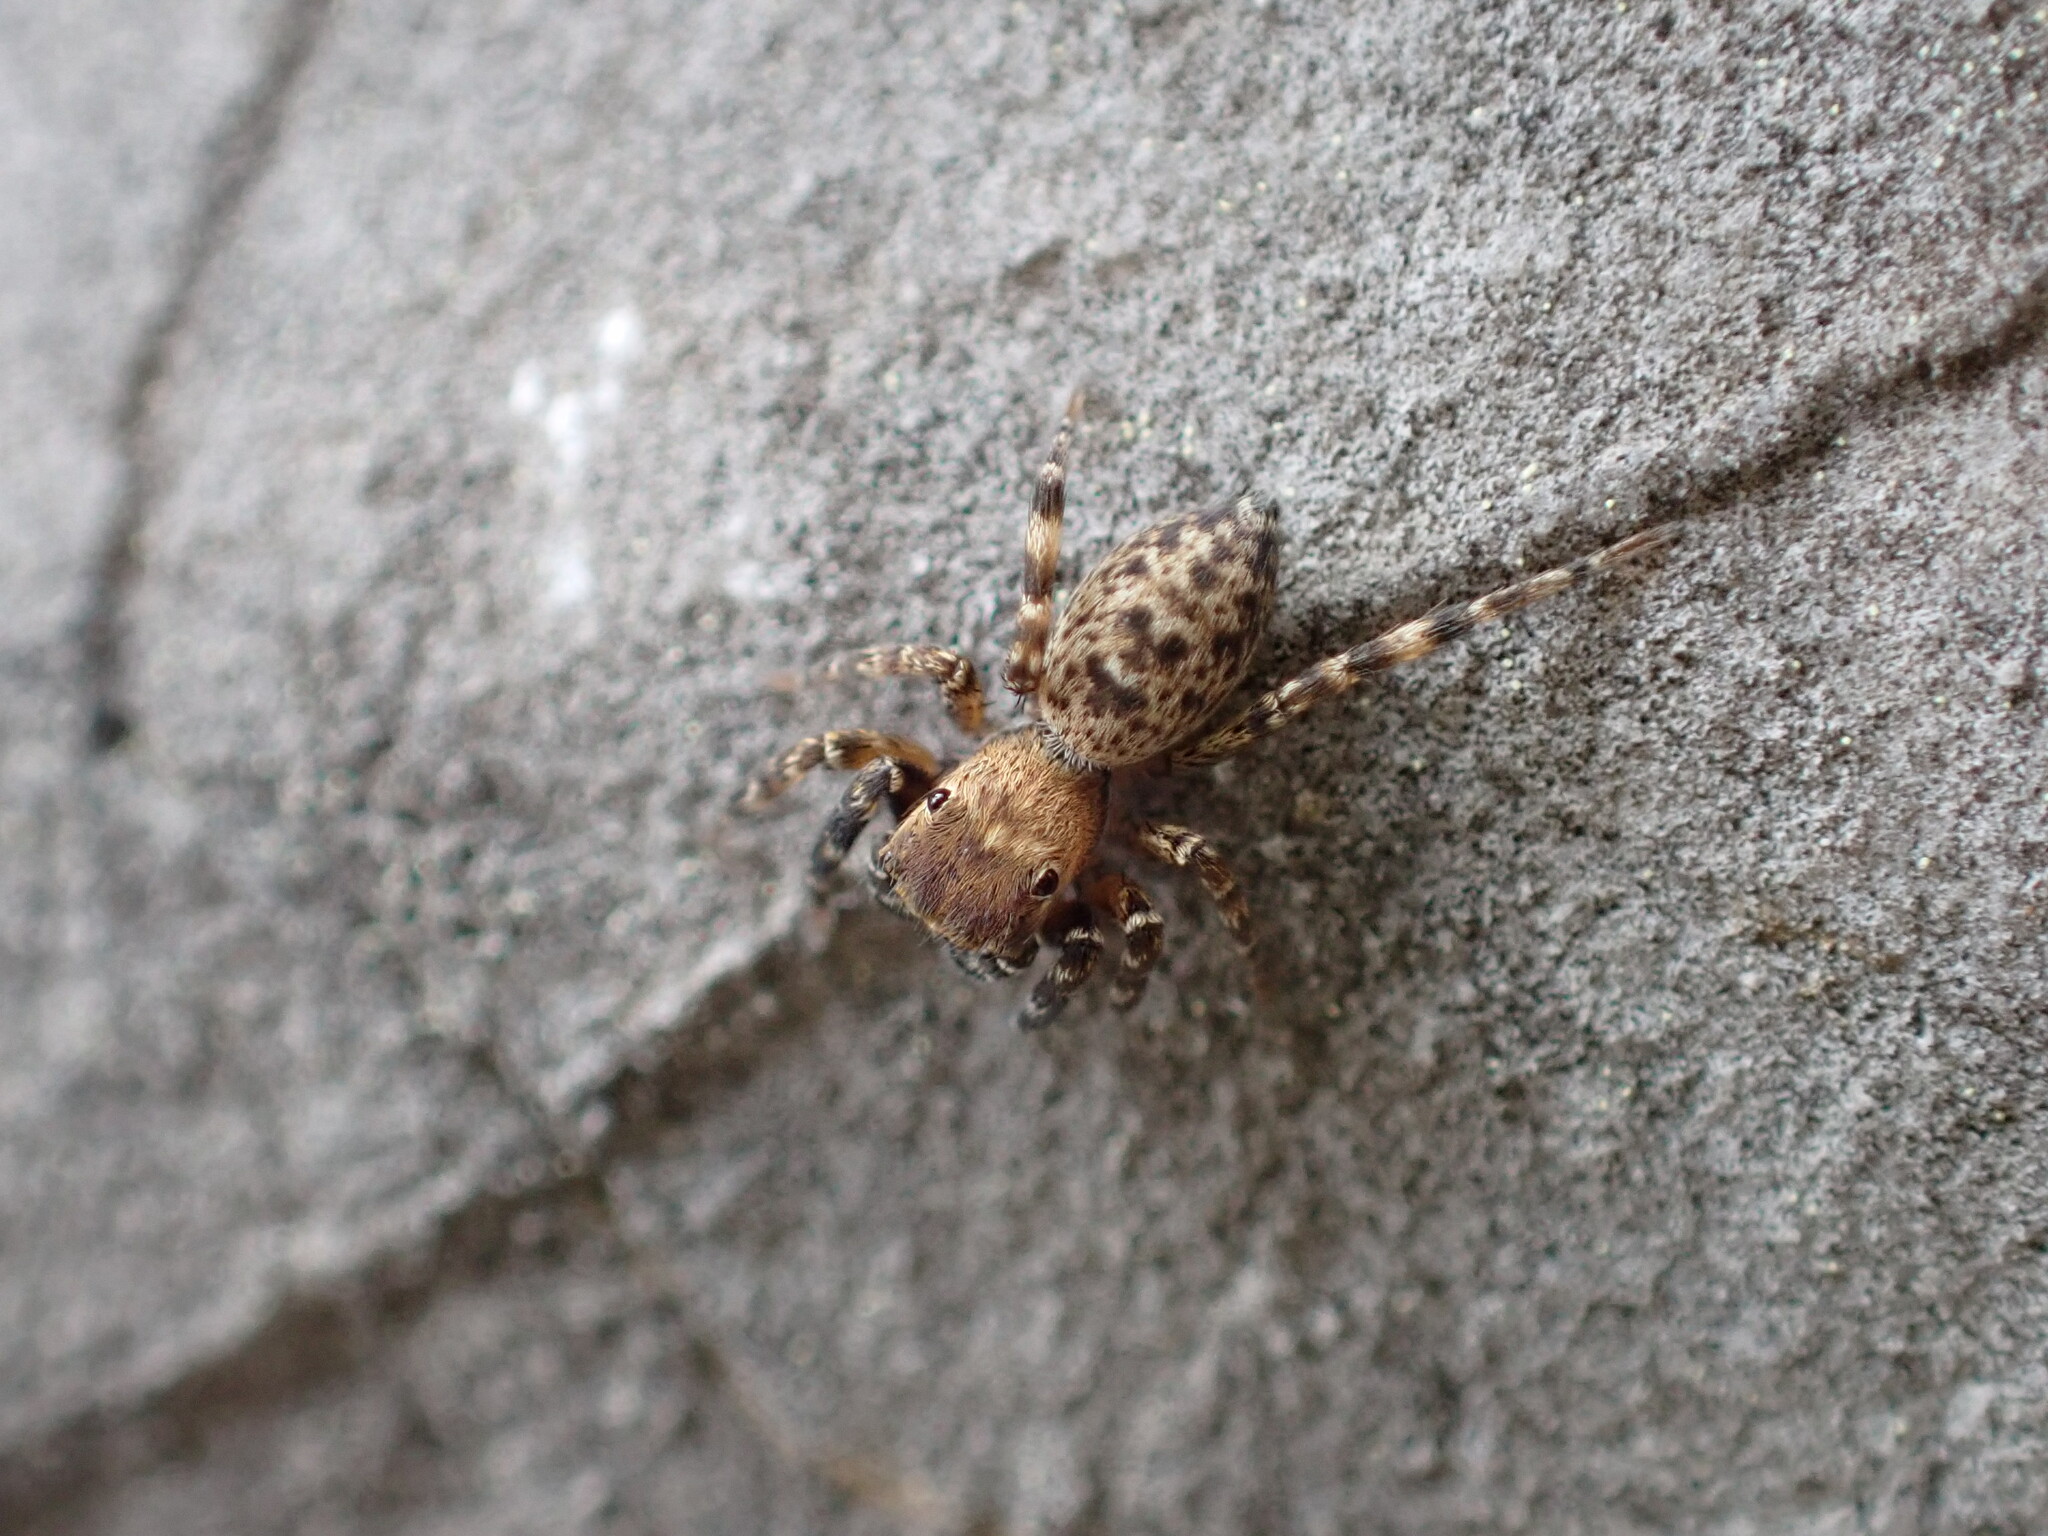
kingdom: Animalia
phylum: Arthropoda
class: Arachnida
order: Araneae
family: Salticidae
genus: Cyrba
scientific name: Cyrba algerina
